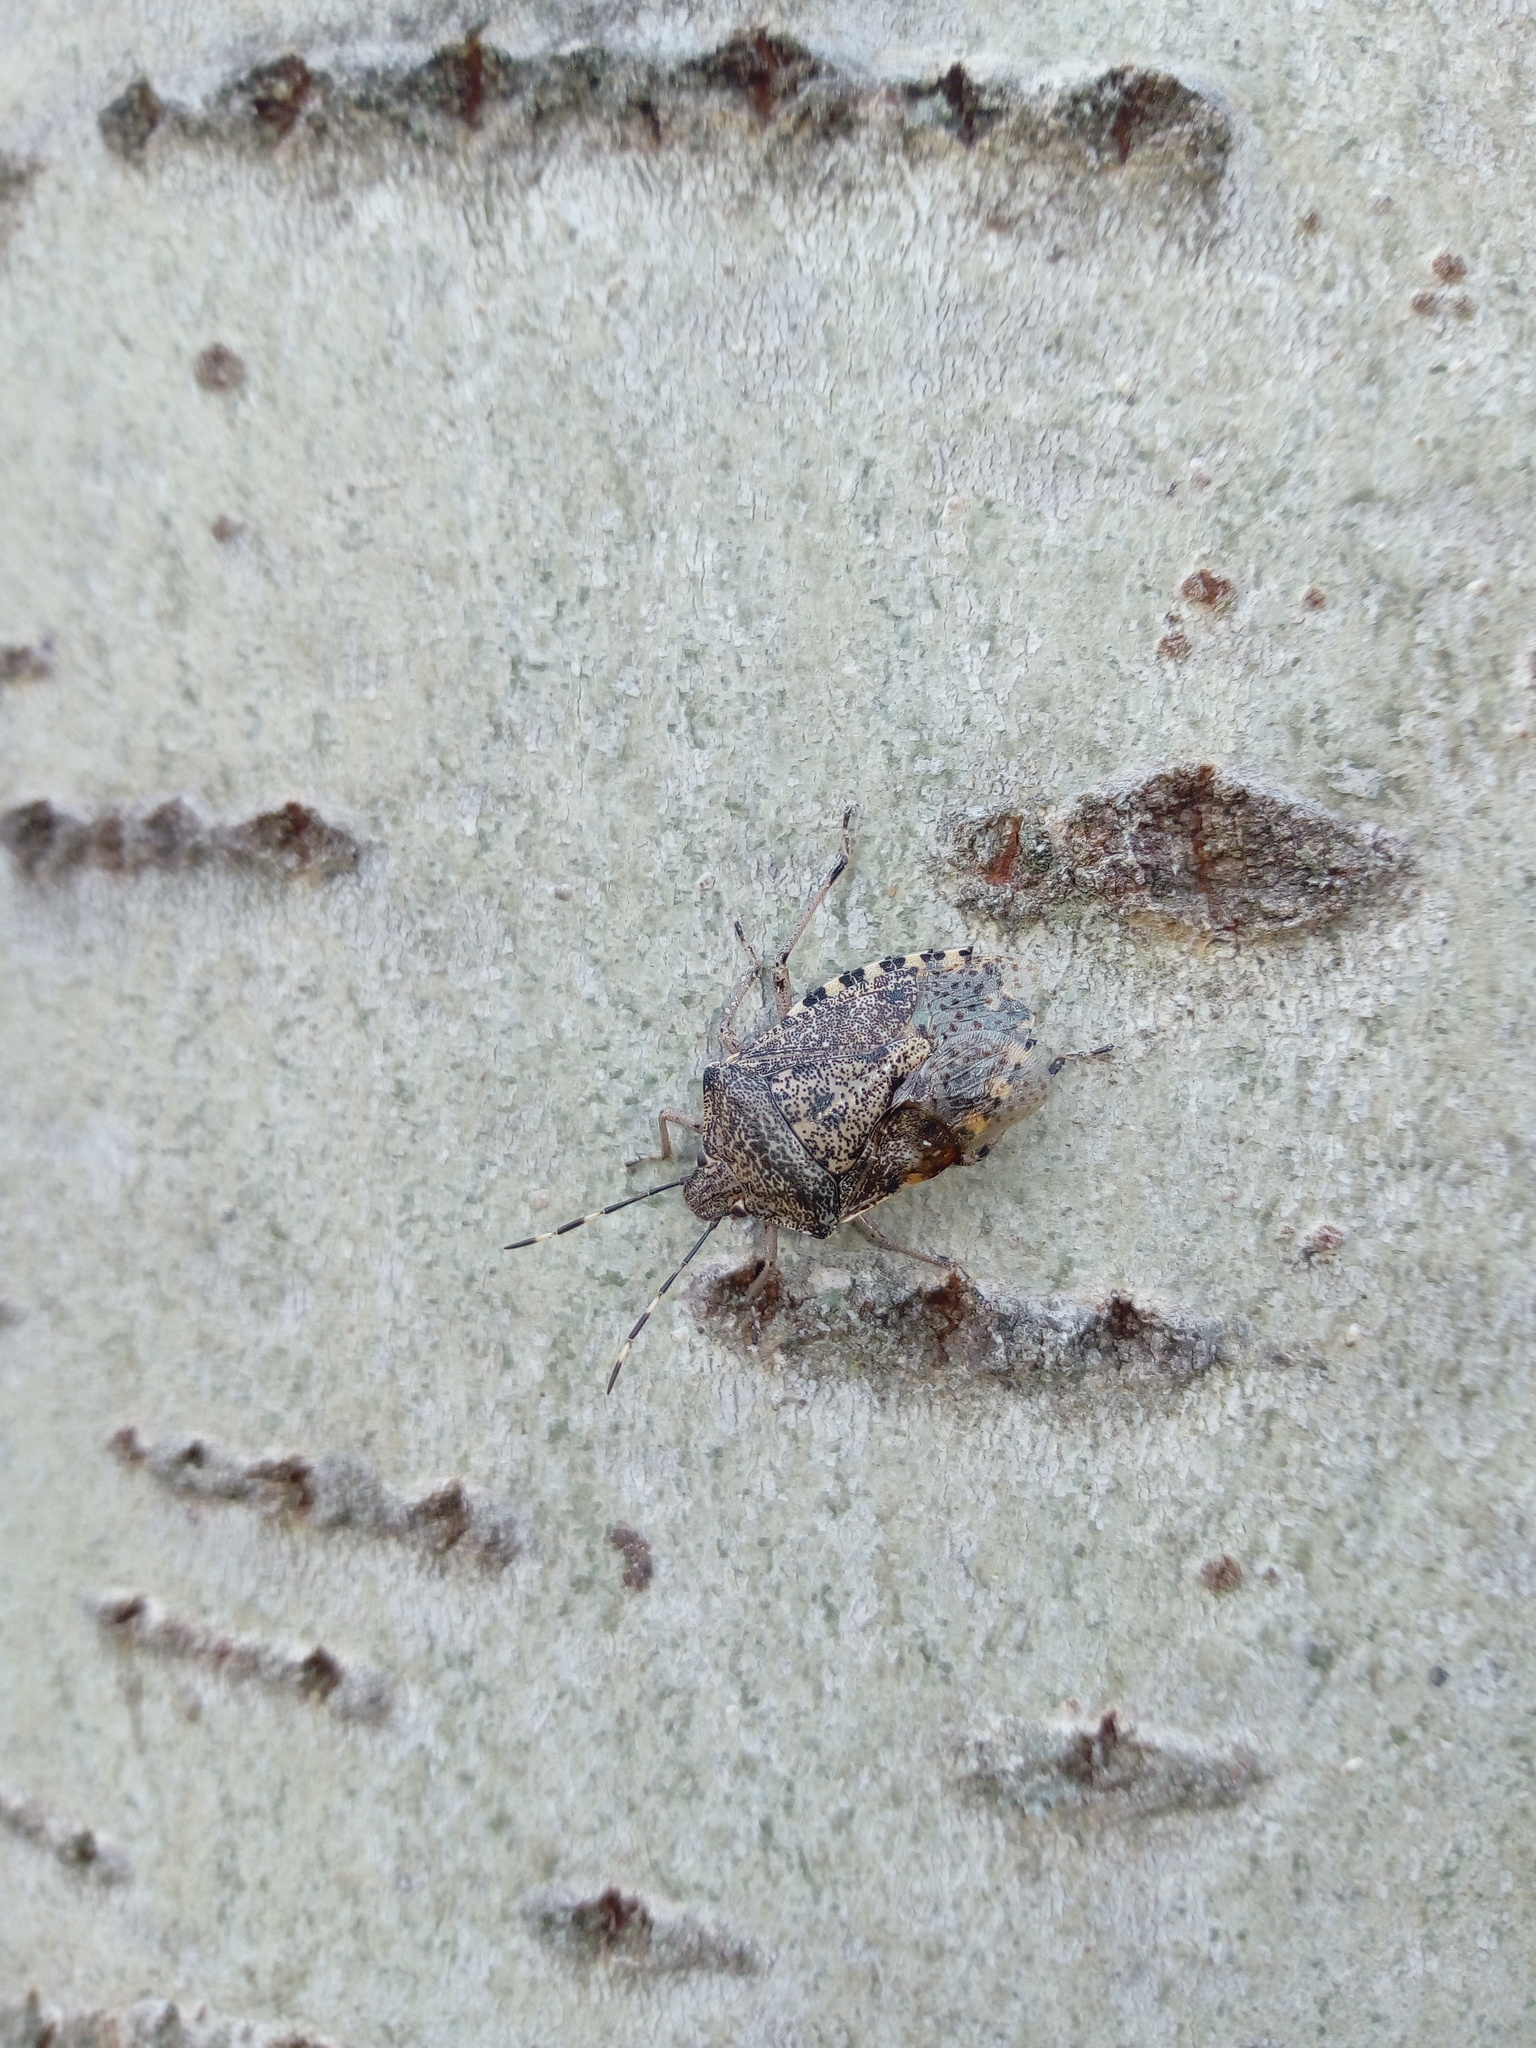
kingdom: Animalia
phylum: Arthropoda
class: Insecta
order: Hemiptera
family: Pentatomidae
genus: Rhaphigaster
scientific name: Rhaphigaster nebulosa
